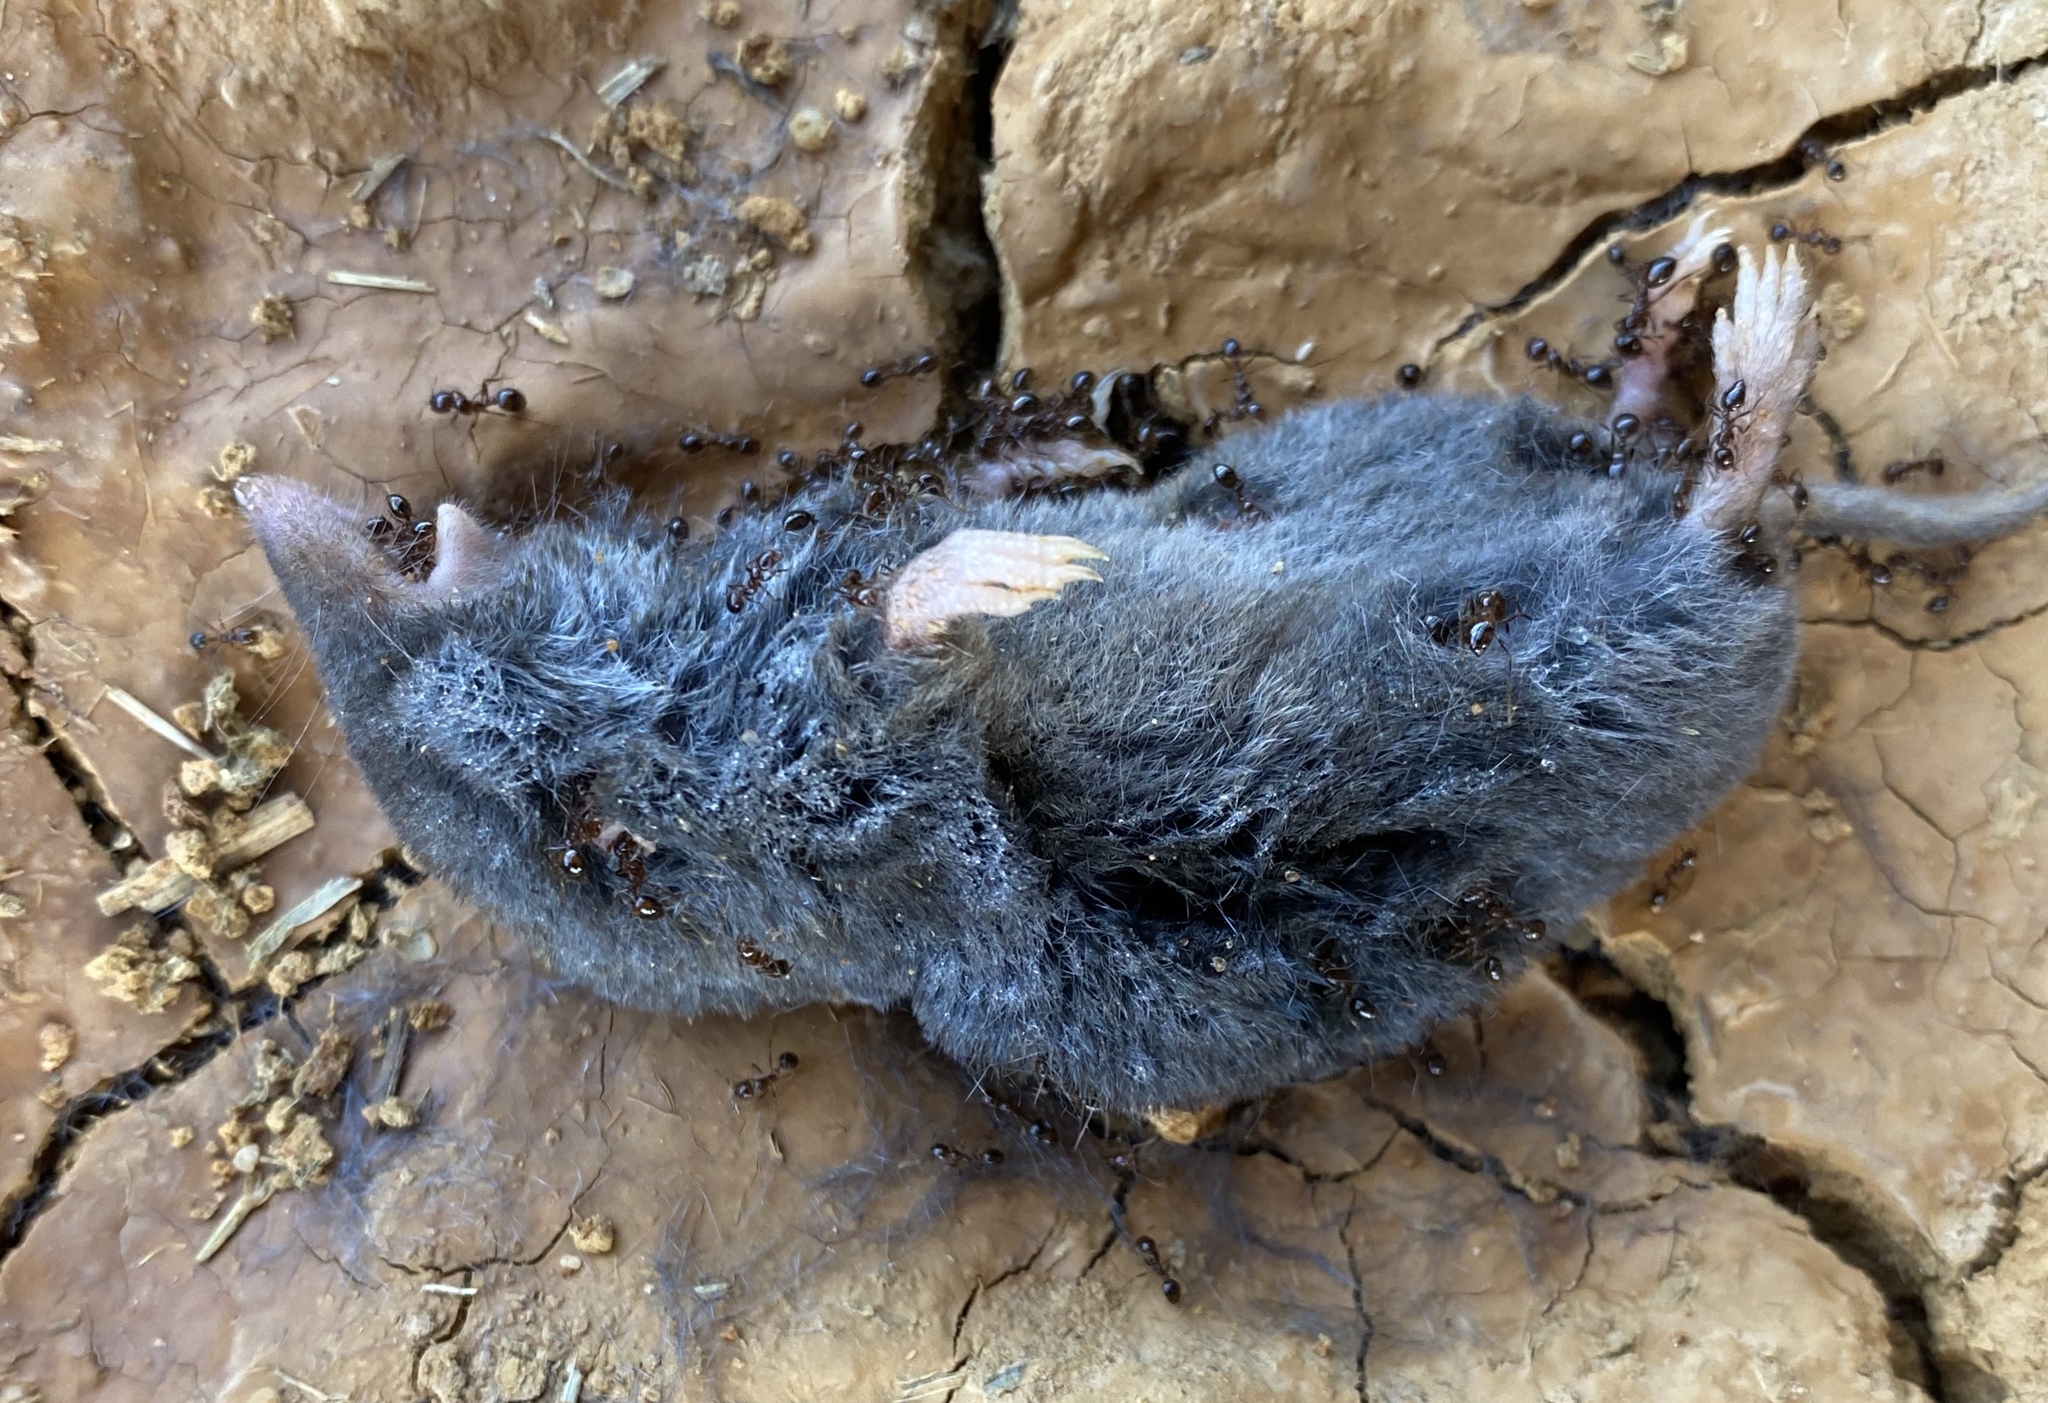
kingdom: Animalia
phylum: Chordata
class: Mammalia
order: Soricomorpha
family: Soricidae
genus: Blarina
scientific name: Blarina carolinensis
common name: Southern short-tailed shrew
